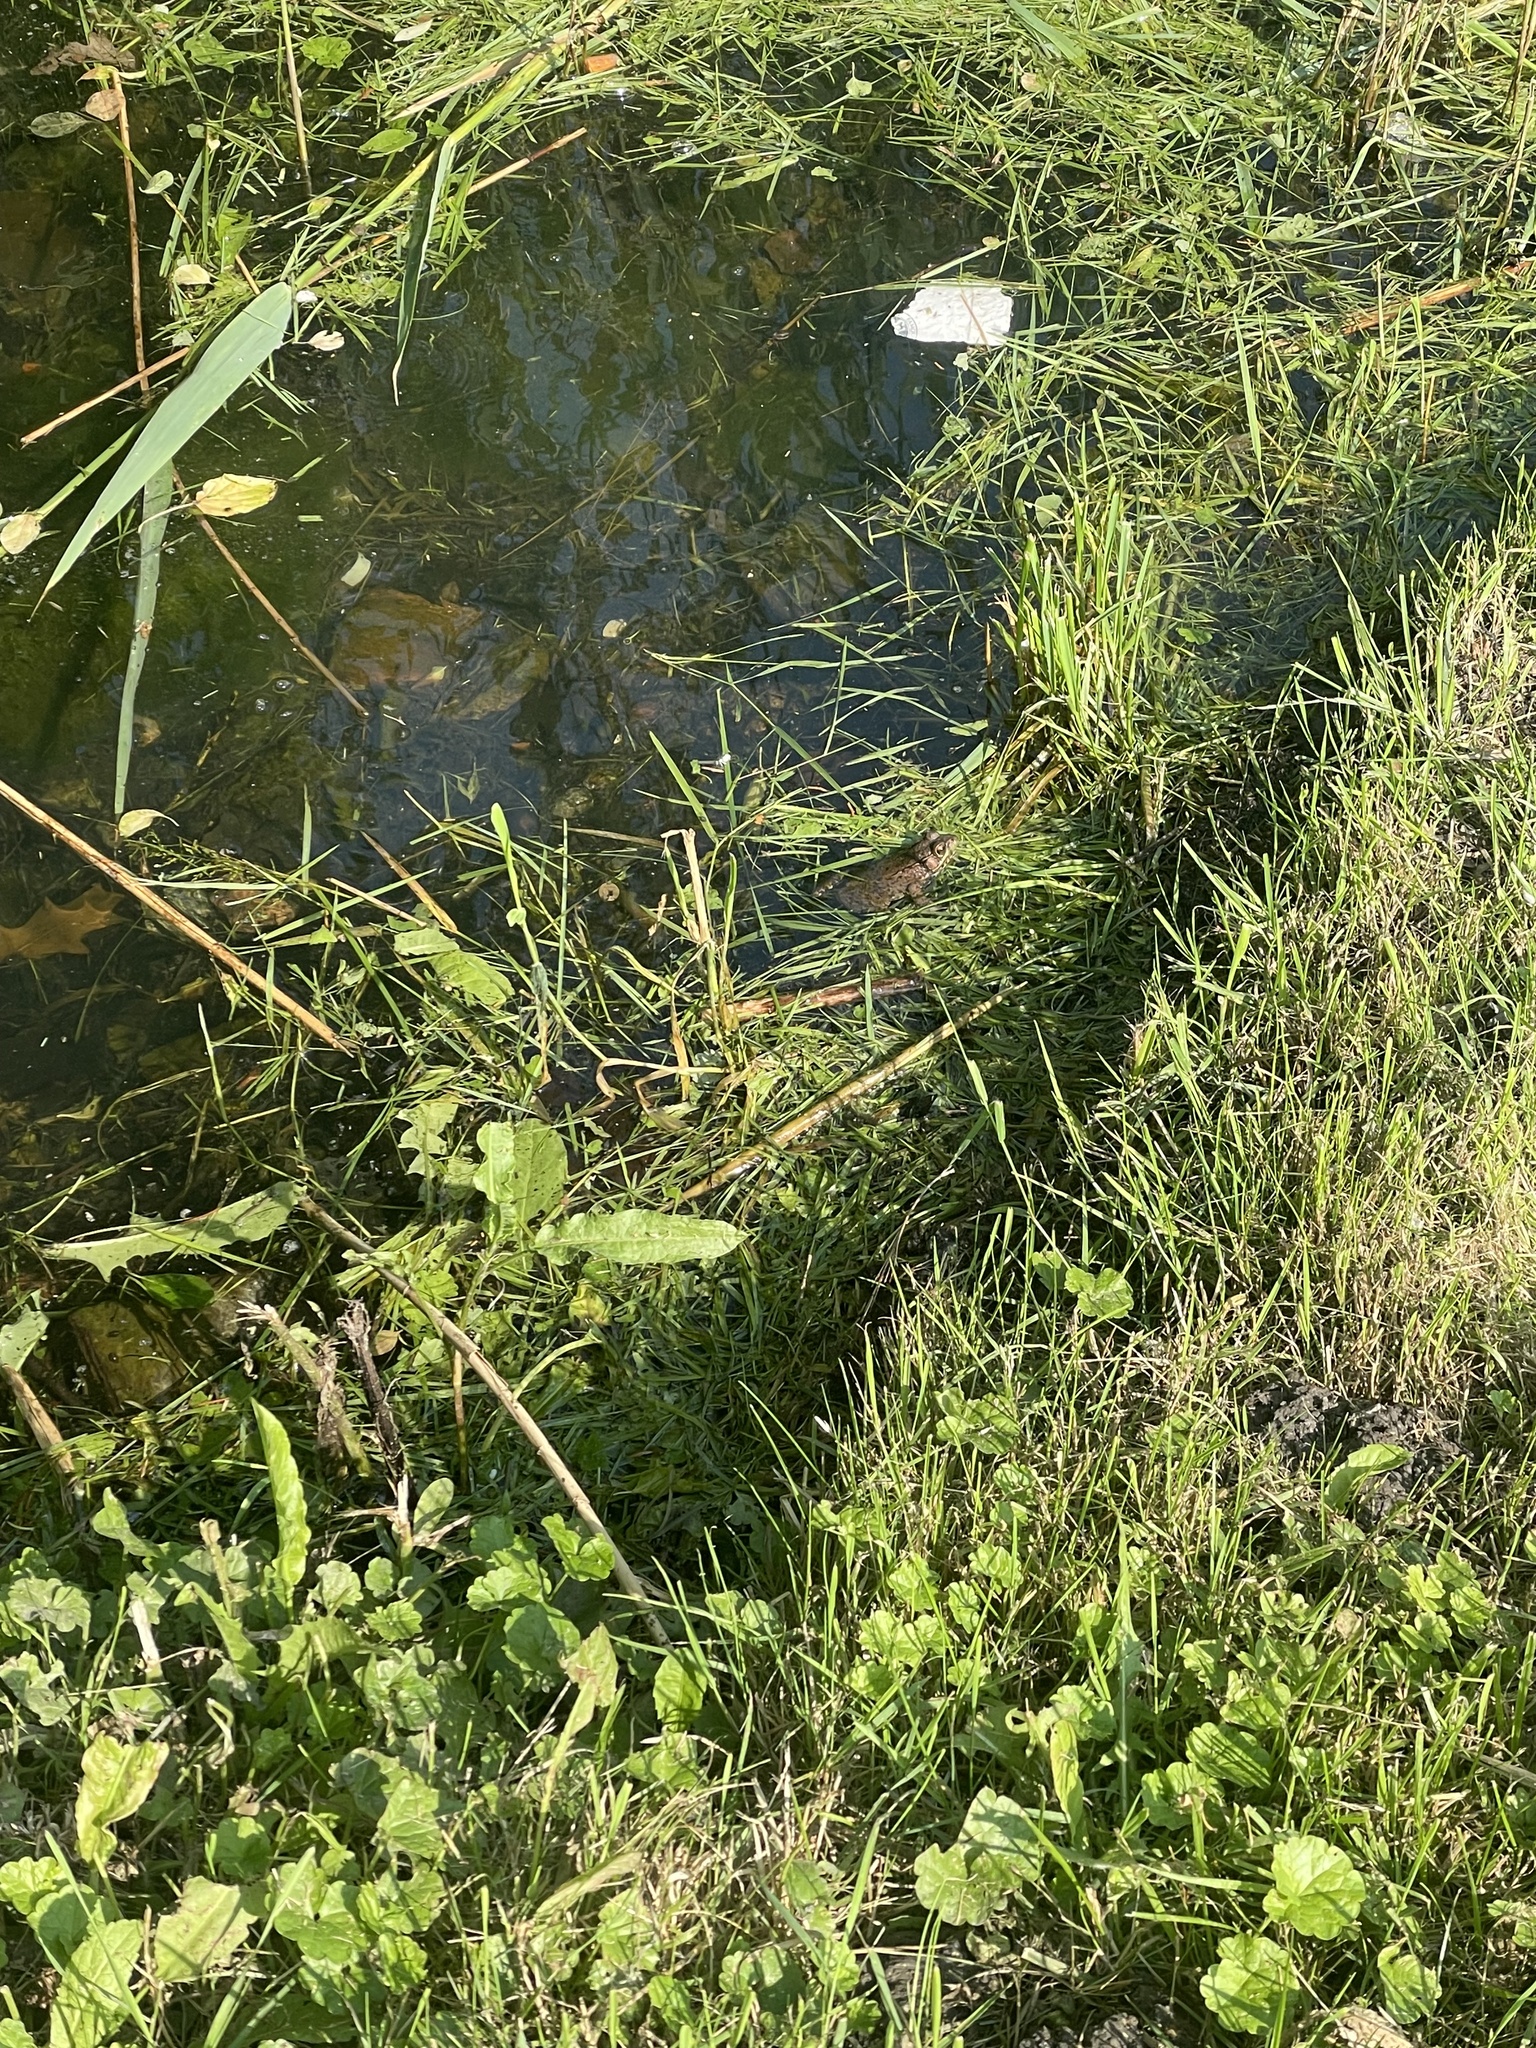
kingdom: Animalia
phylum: Chordata
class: Amphibia
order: Anura
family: Ranidae
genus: Lithobates
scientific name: Lithobates clamitans
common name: Green frog
